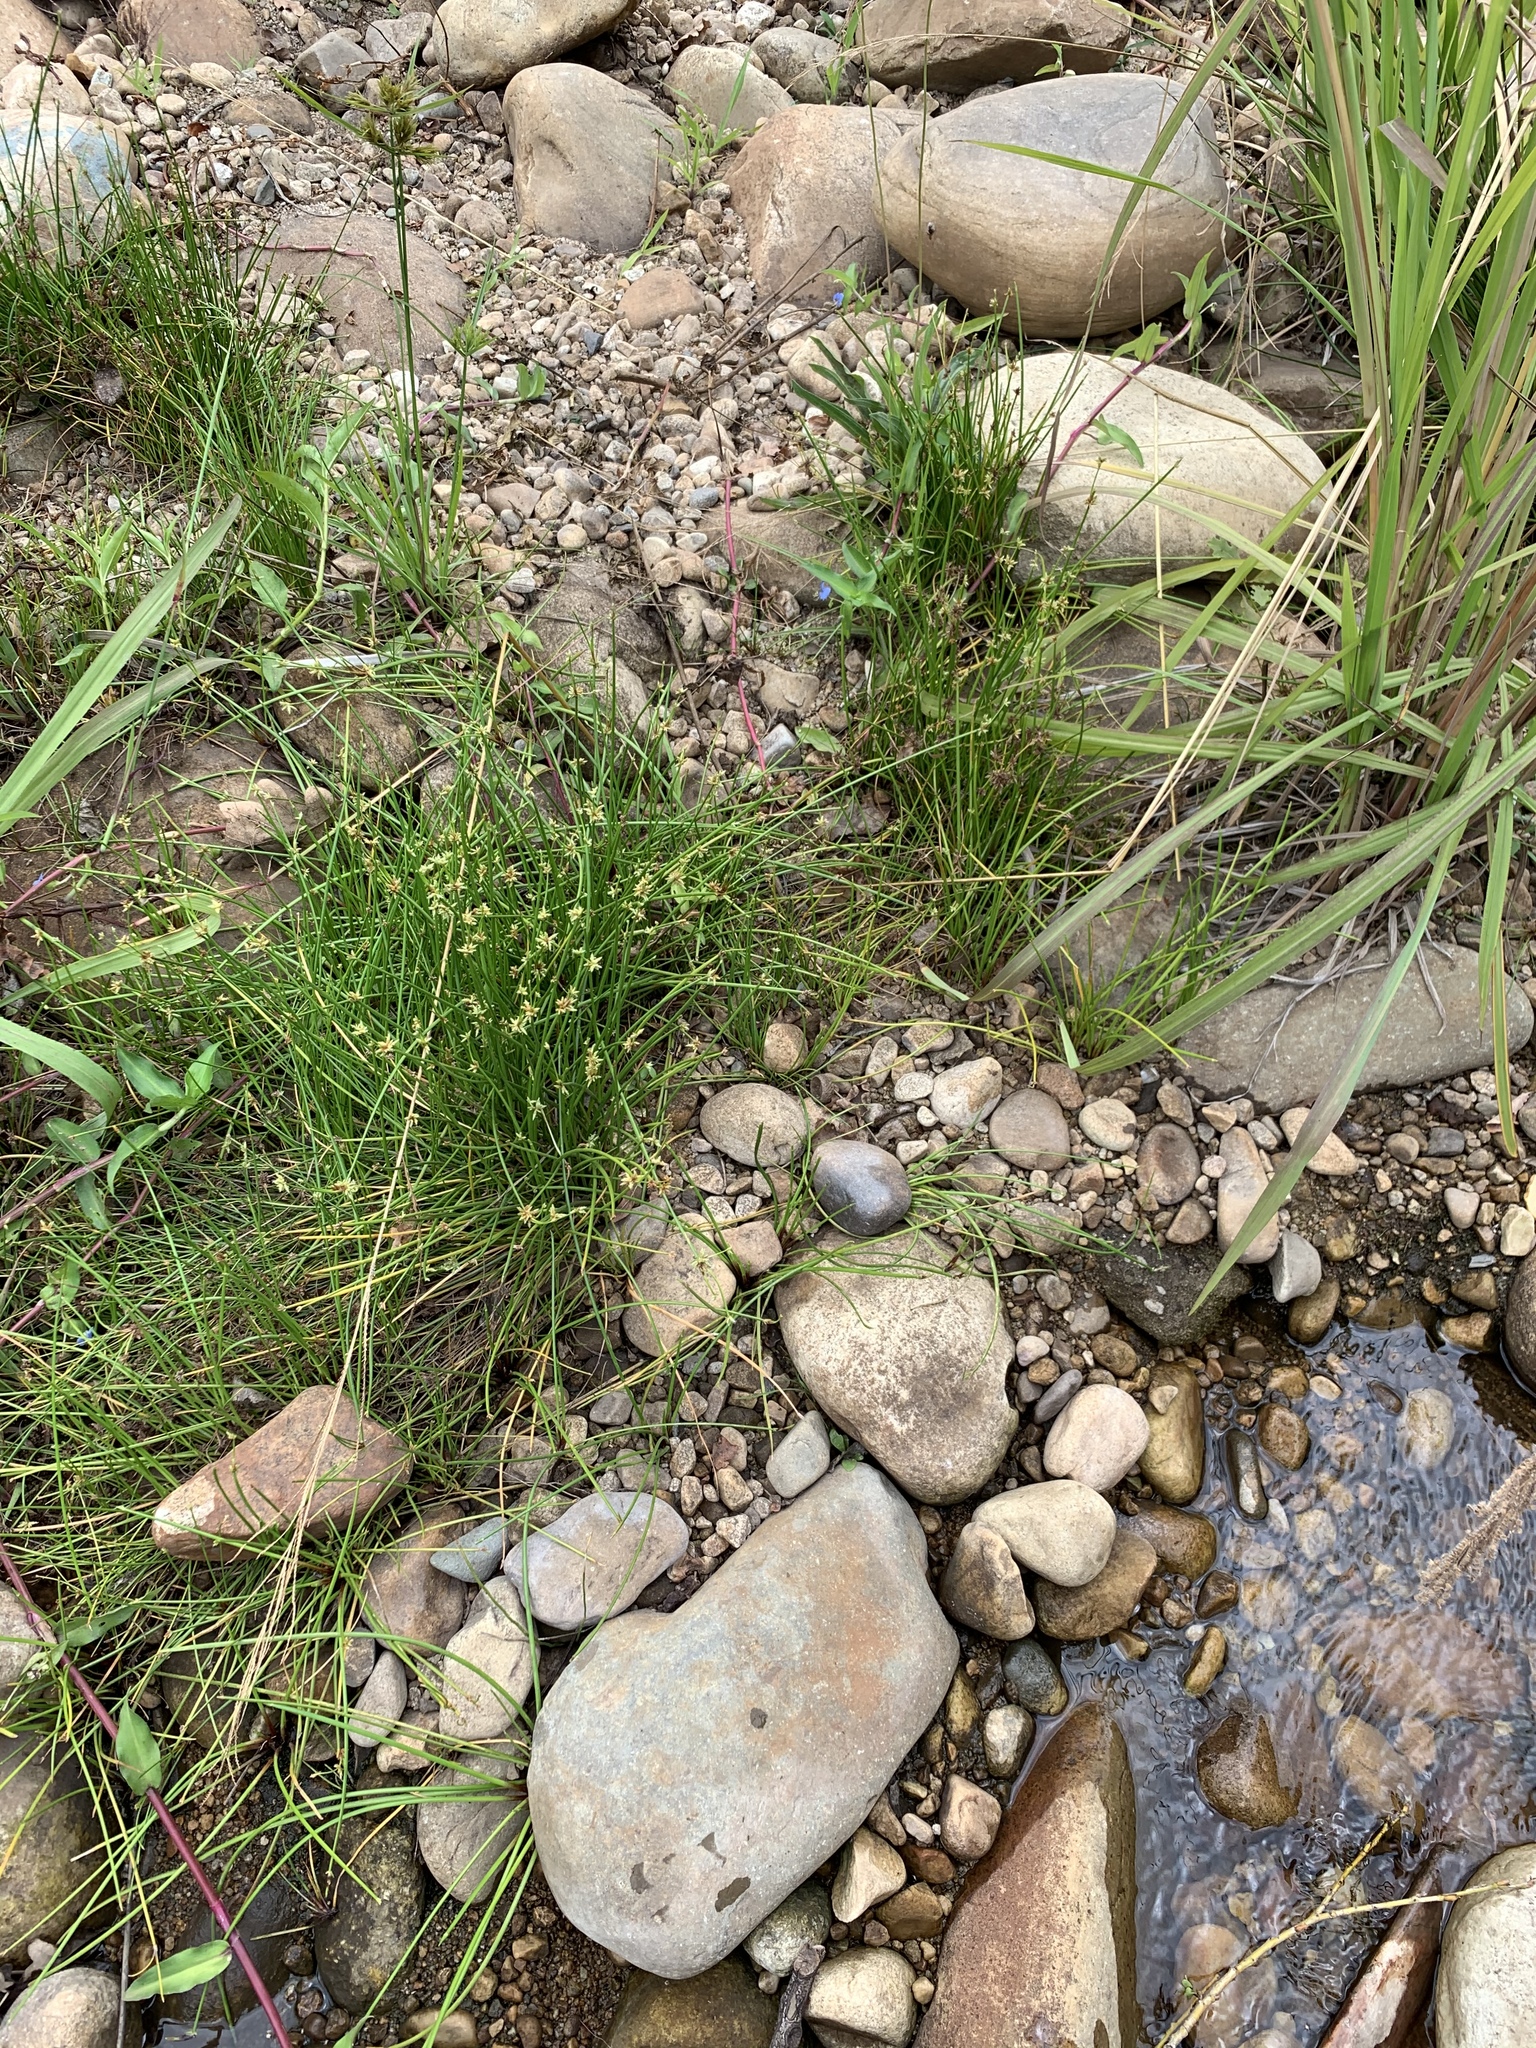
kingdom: Plantae
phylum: Tracheophyta
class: Liliopsida
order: Poales
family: Cyperaceae
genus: Isolepis
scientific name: Isolepis prolifera
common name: Proliferating bulrush
